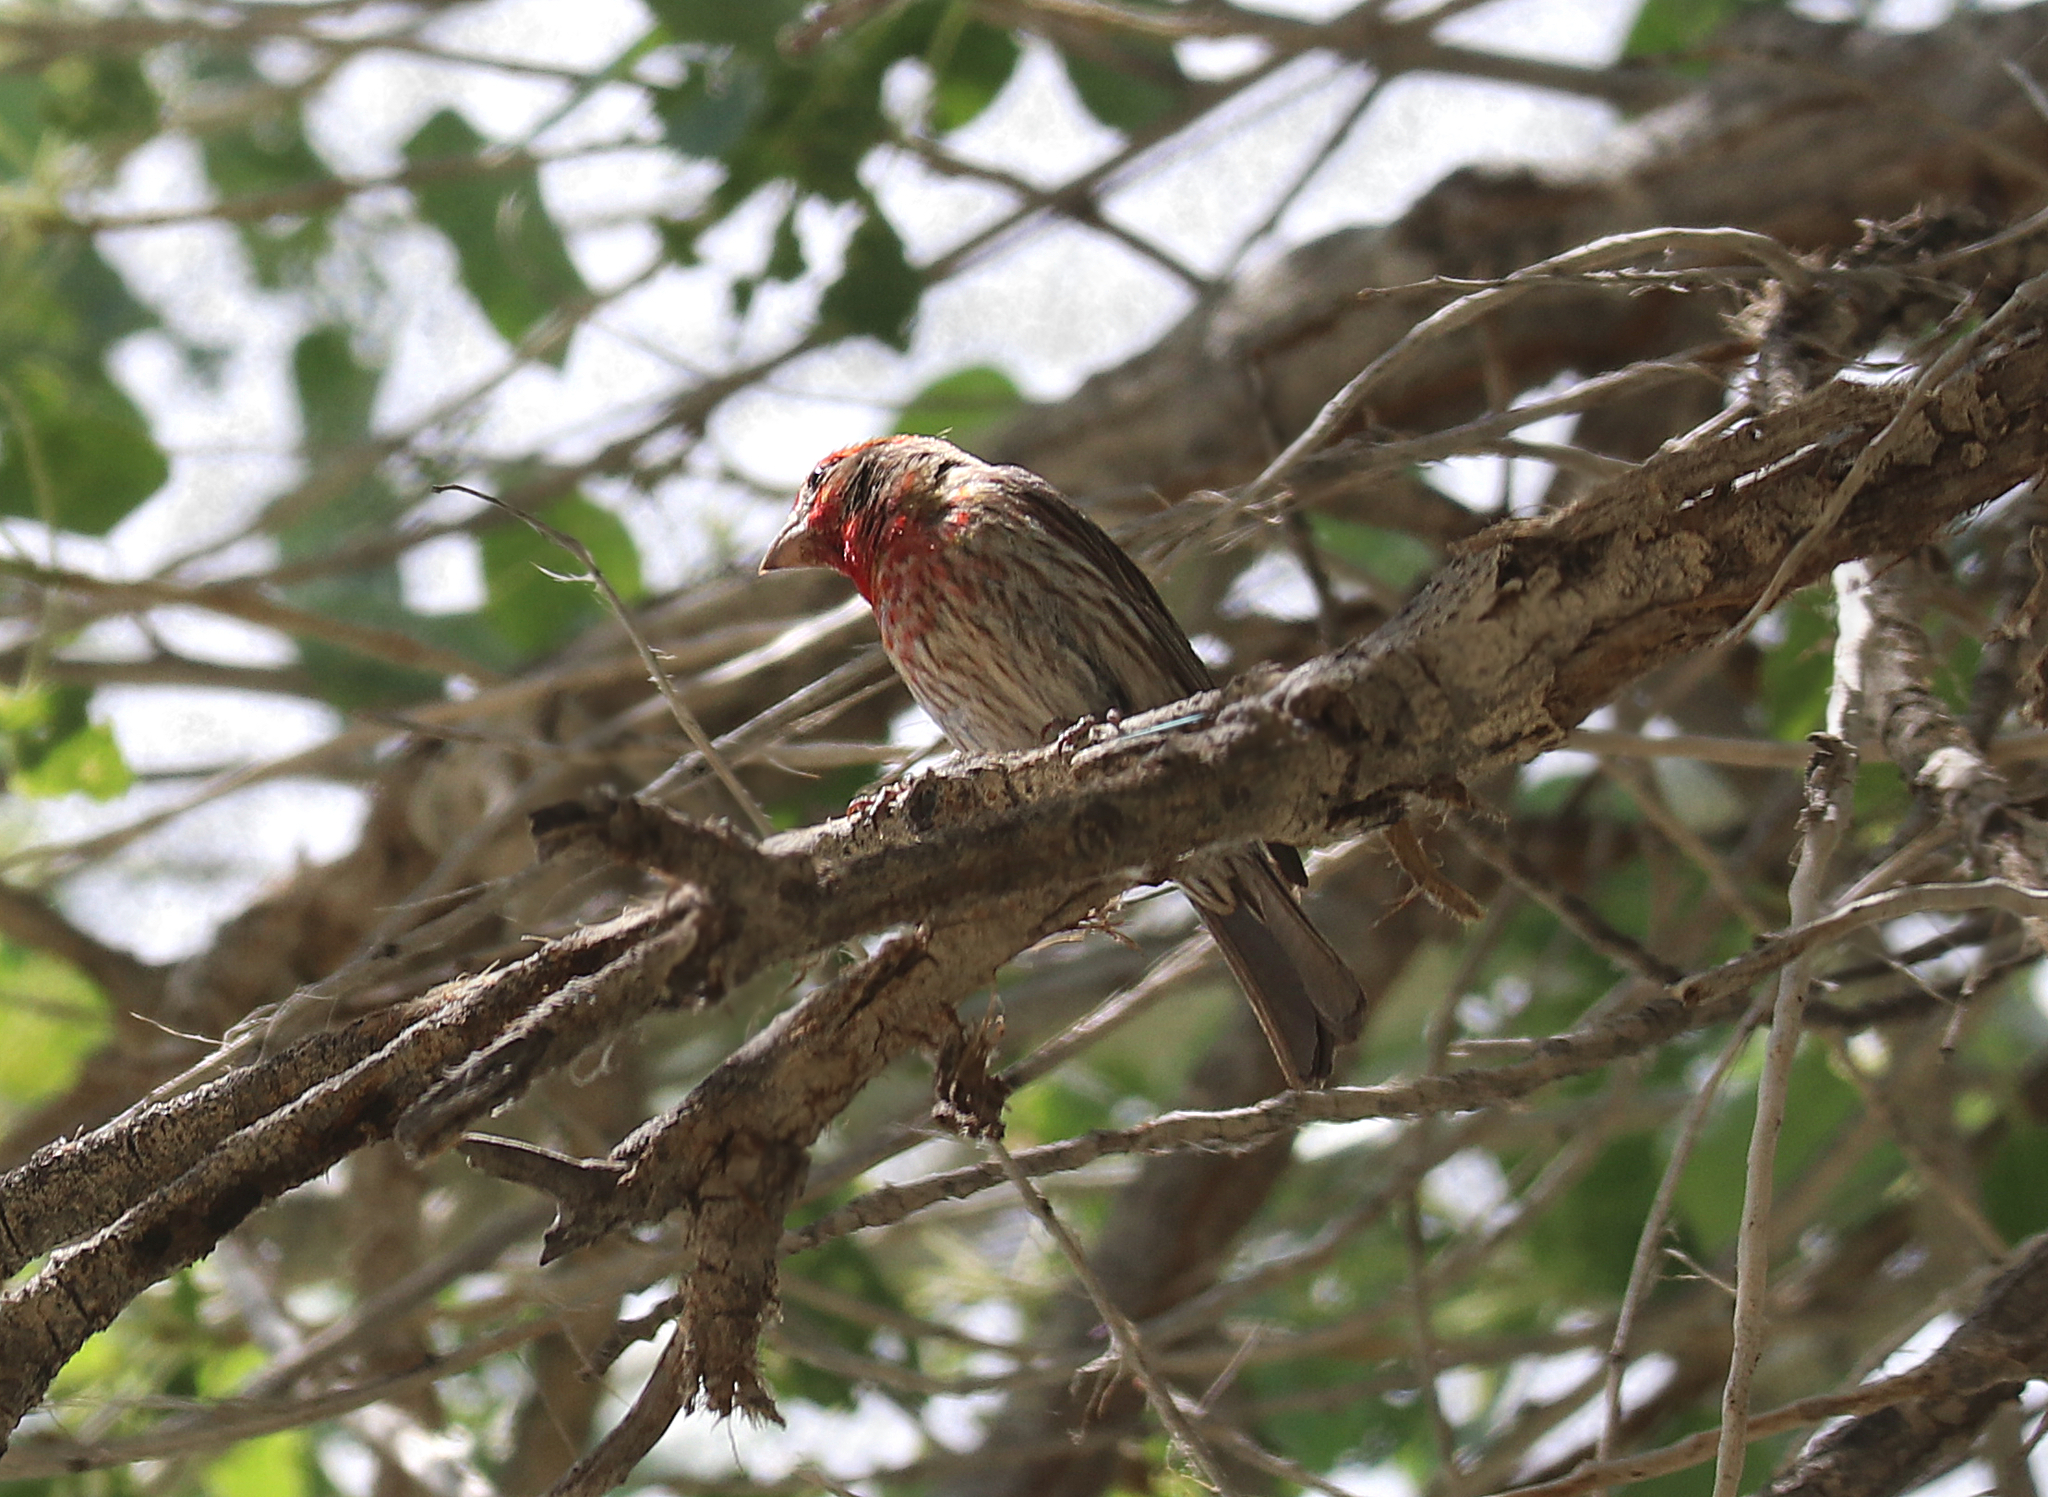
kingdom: Animalia
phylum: Chordata
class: Aves
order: Passeriformes
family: Fringillidae
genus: Haemorhous
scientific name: Haemorhous mexicanus
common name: House finch
